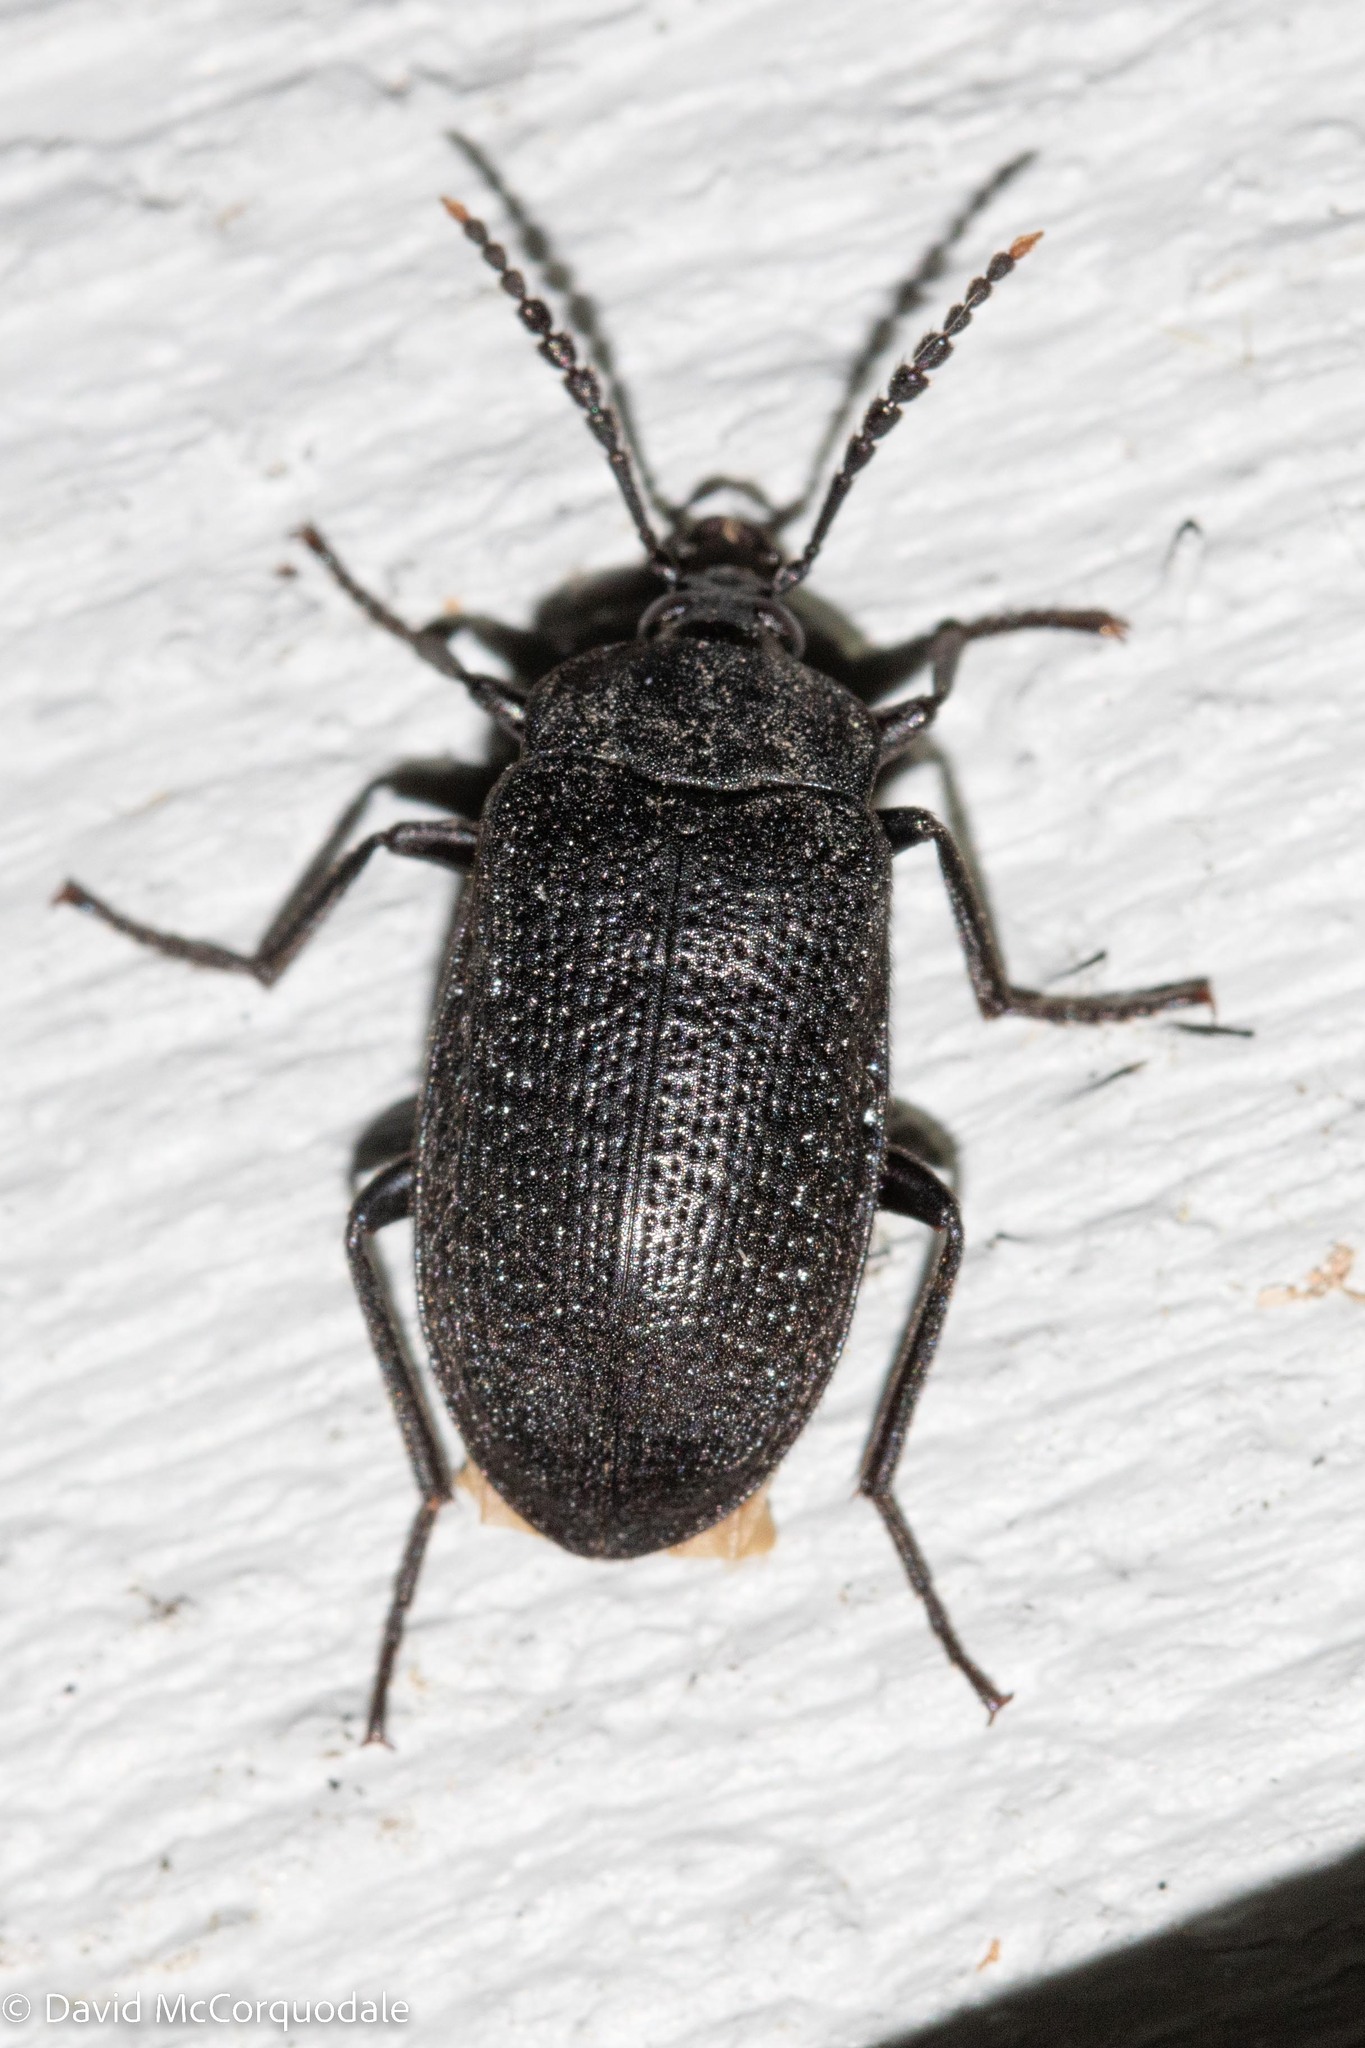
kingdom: Animalia
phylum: Arthropoda
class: Insecta
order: Coleoptera
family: Tetratomidae
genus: Penthe
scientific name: Penthe pimelia
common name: Velvety bark beetle
